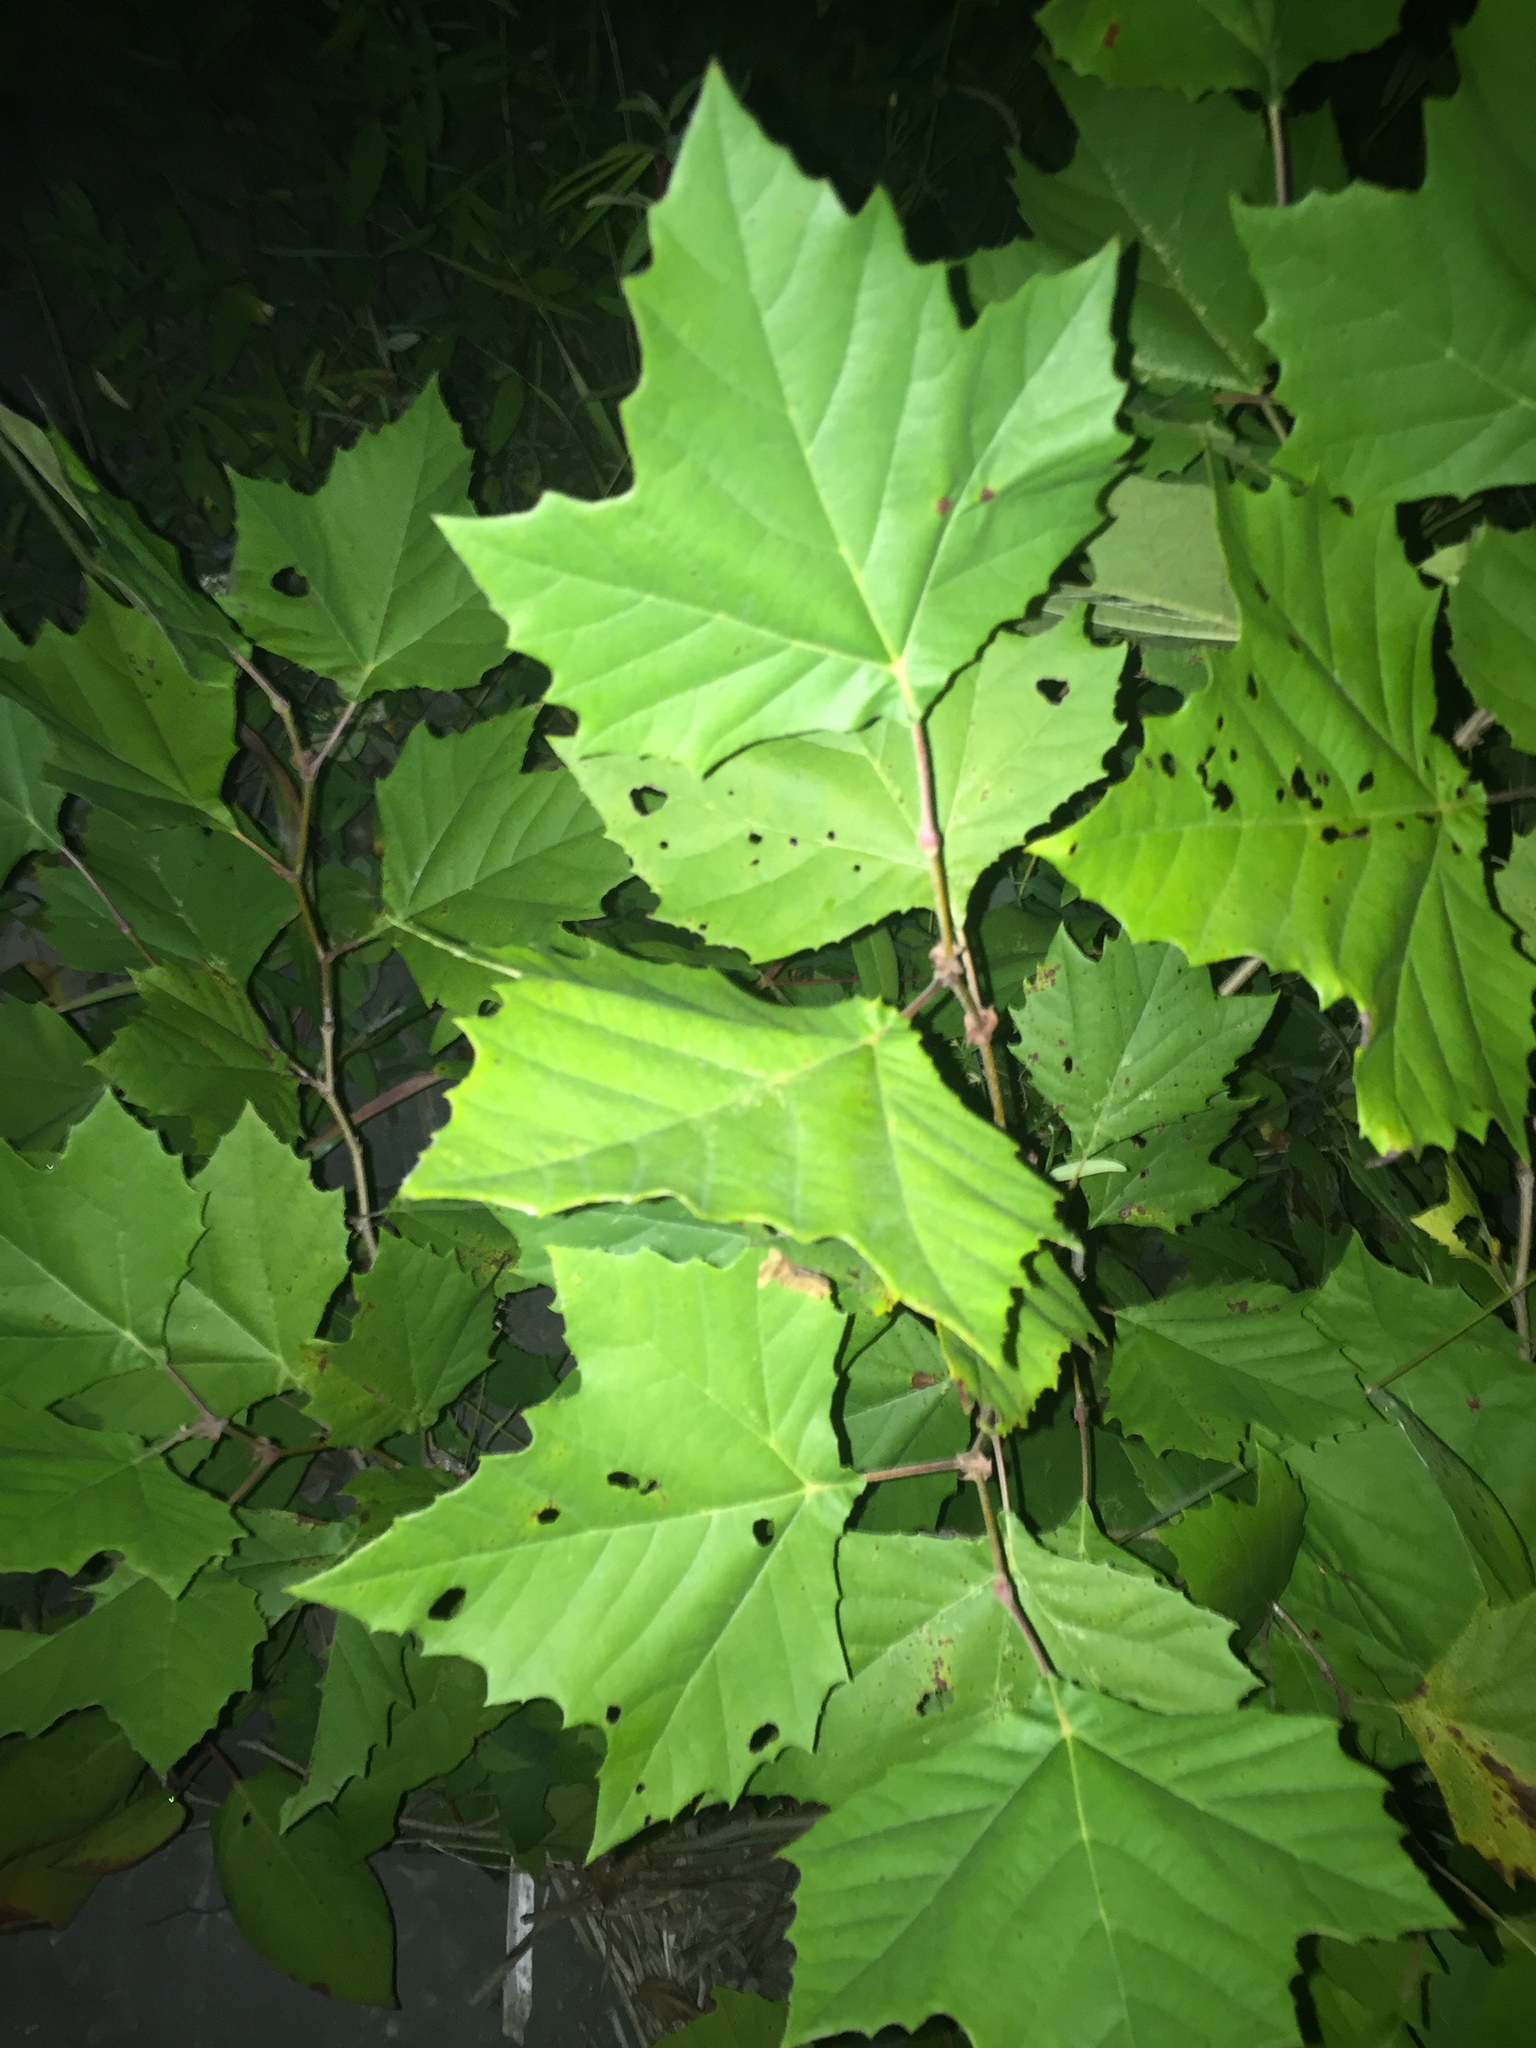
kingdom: Plantae
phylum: Tracheophyta
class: Magnoliopsida
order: Proteales
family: Platanaceae
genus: Platanus
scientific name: Platanus occidentalis
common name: American sycamore
